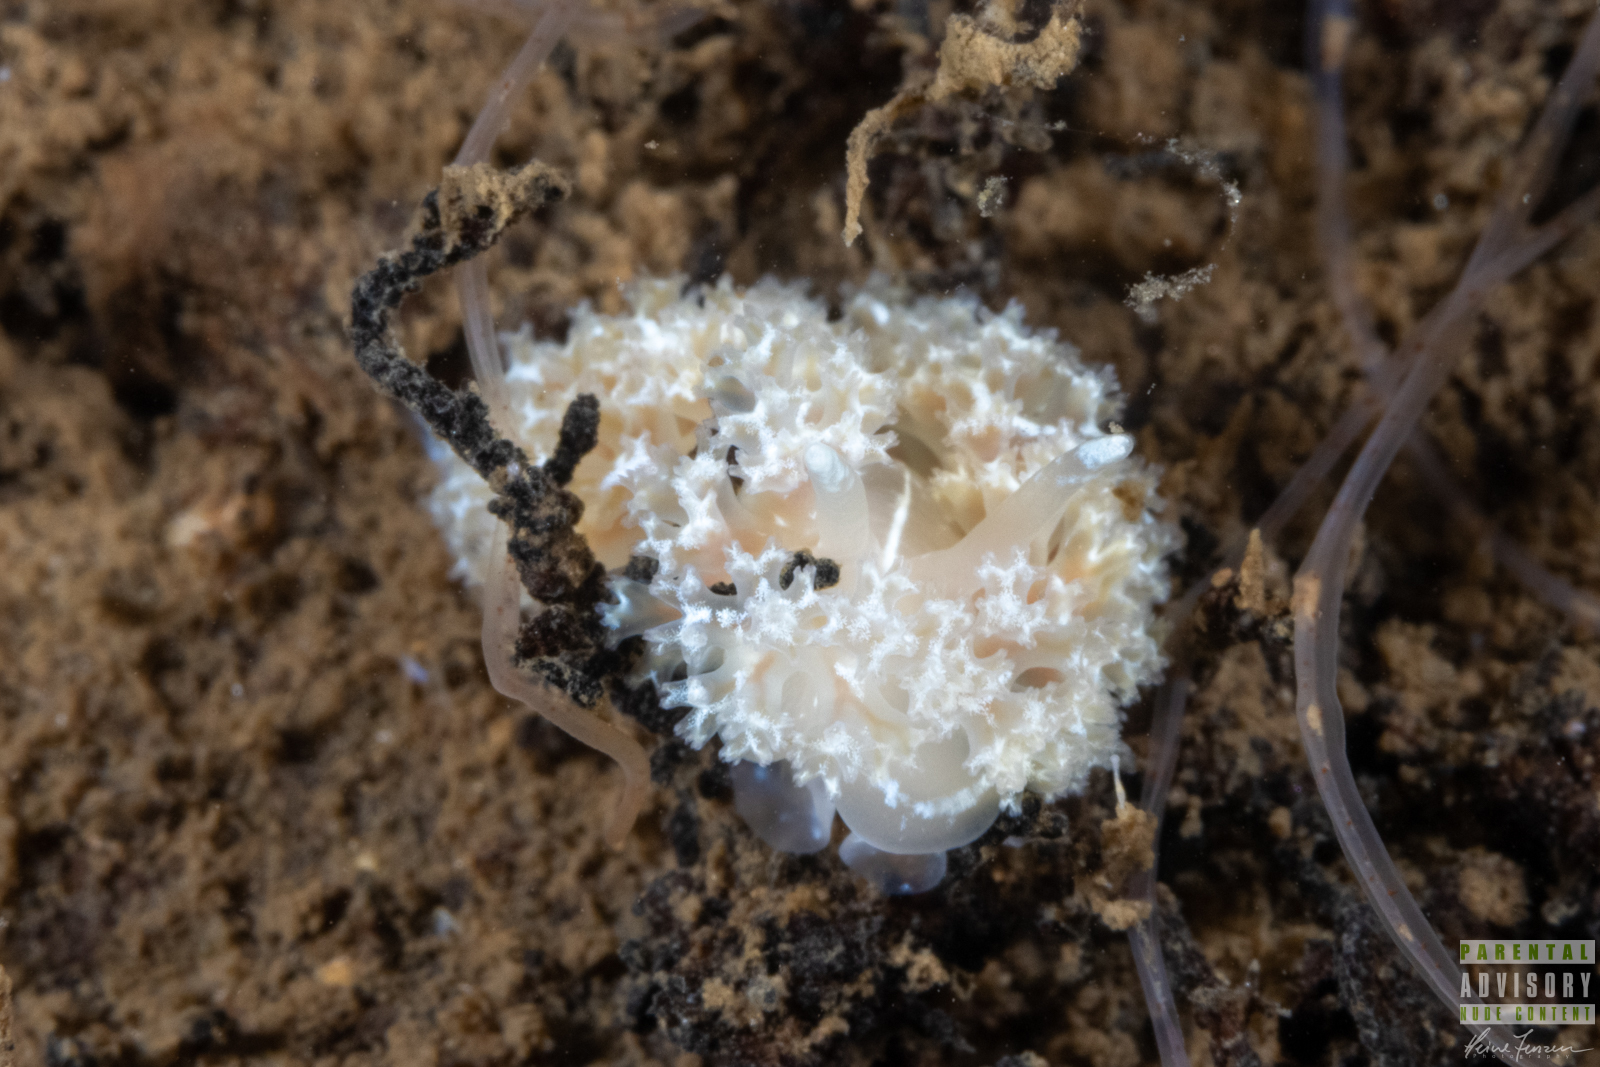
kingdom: Animalia
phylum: Mollusca
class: Gastropoda
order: Nudibranchia
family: Heroidae
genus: Hero
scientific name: Hero formosa
